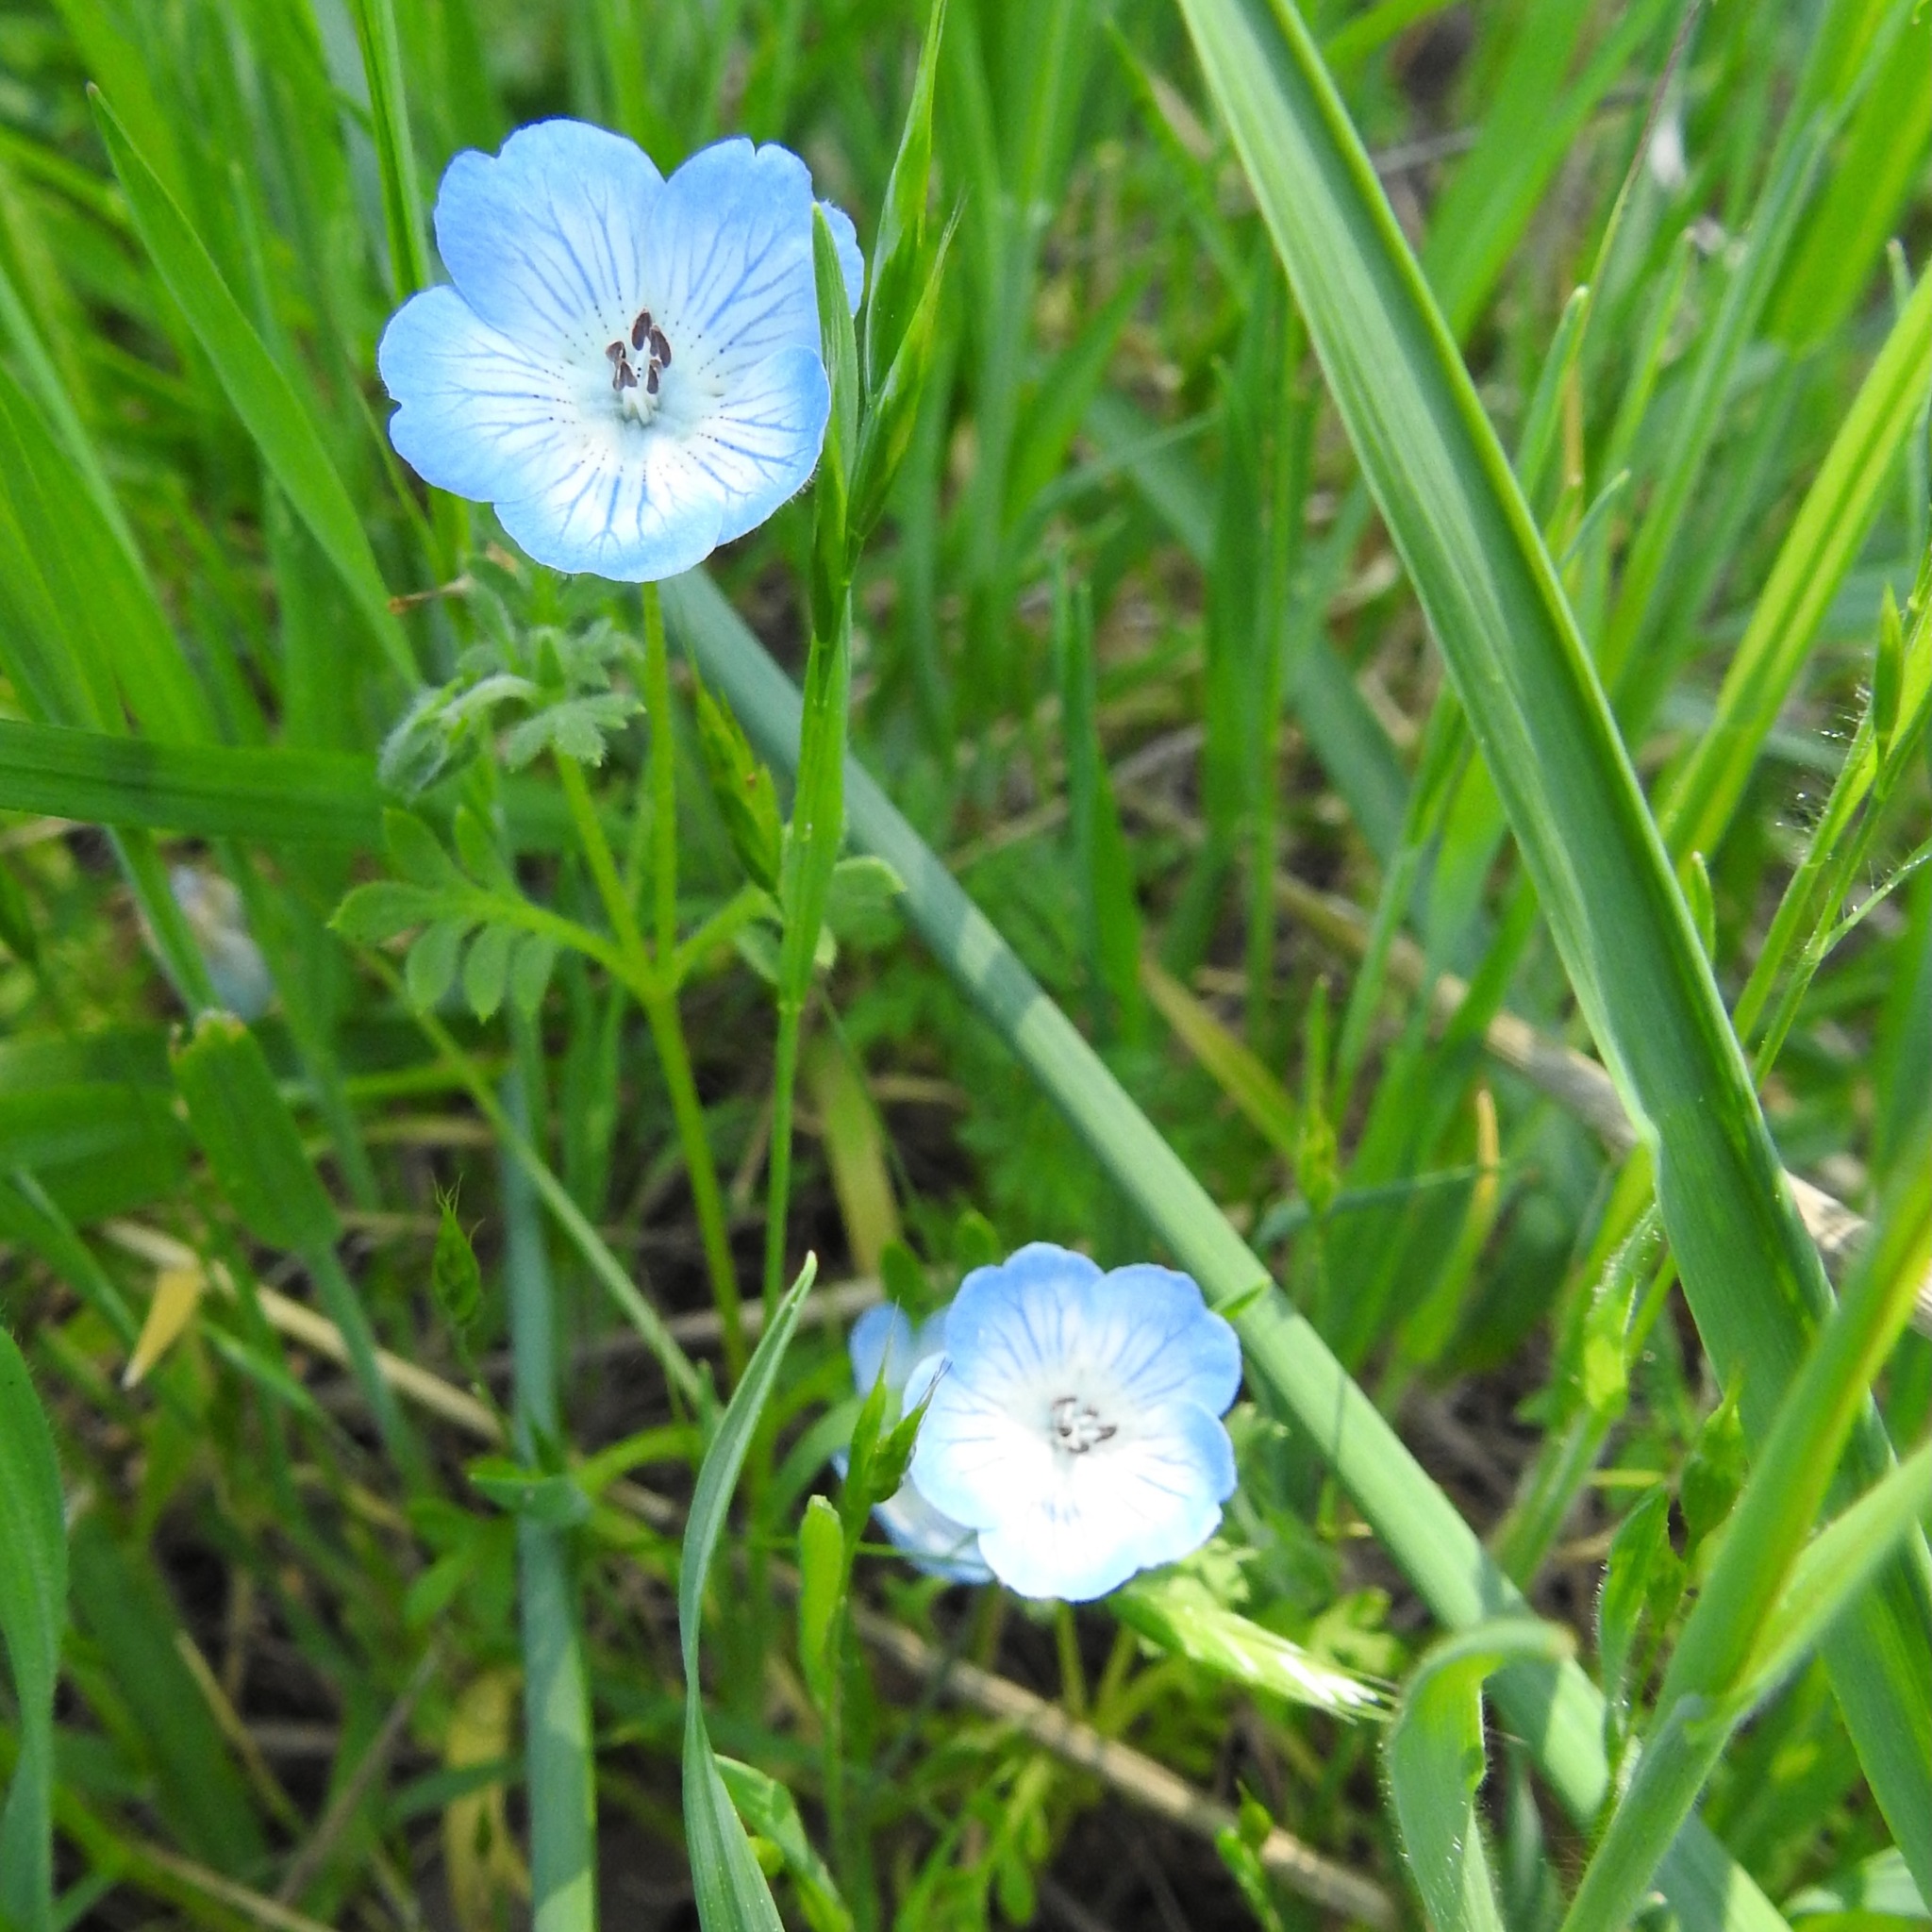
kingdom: Plantae
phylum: Tracheophyta
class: Magnoliopsida
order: Boraginales
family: Hydrophyllaceae
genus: Nemophila
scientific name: Nemophila menziesii
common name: Baby's-blue-eyes
